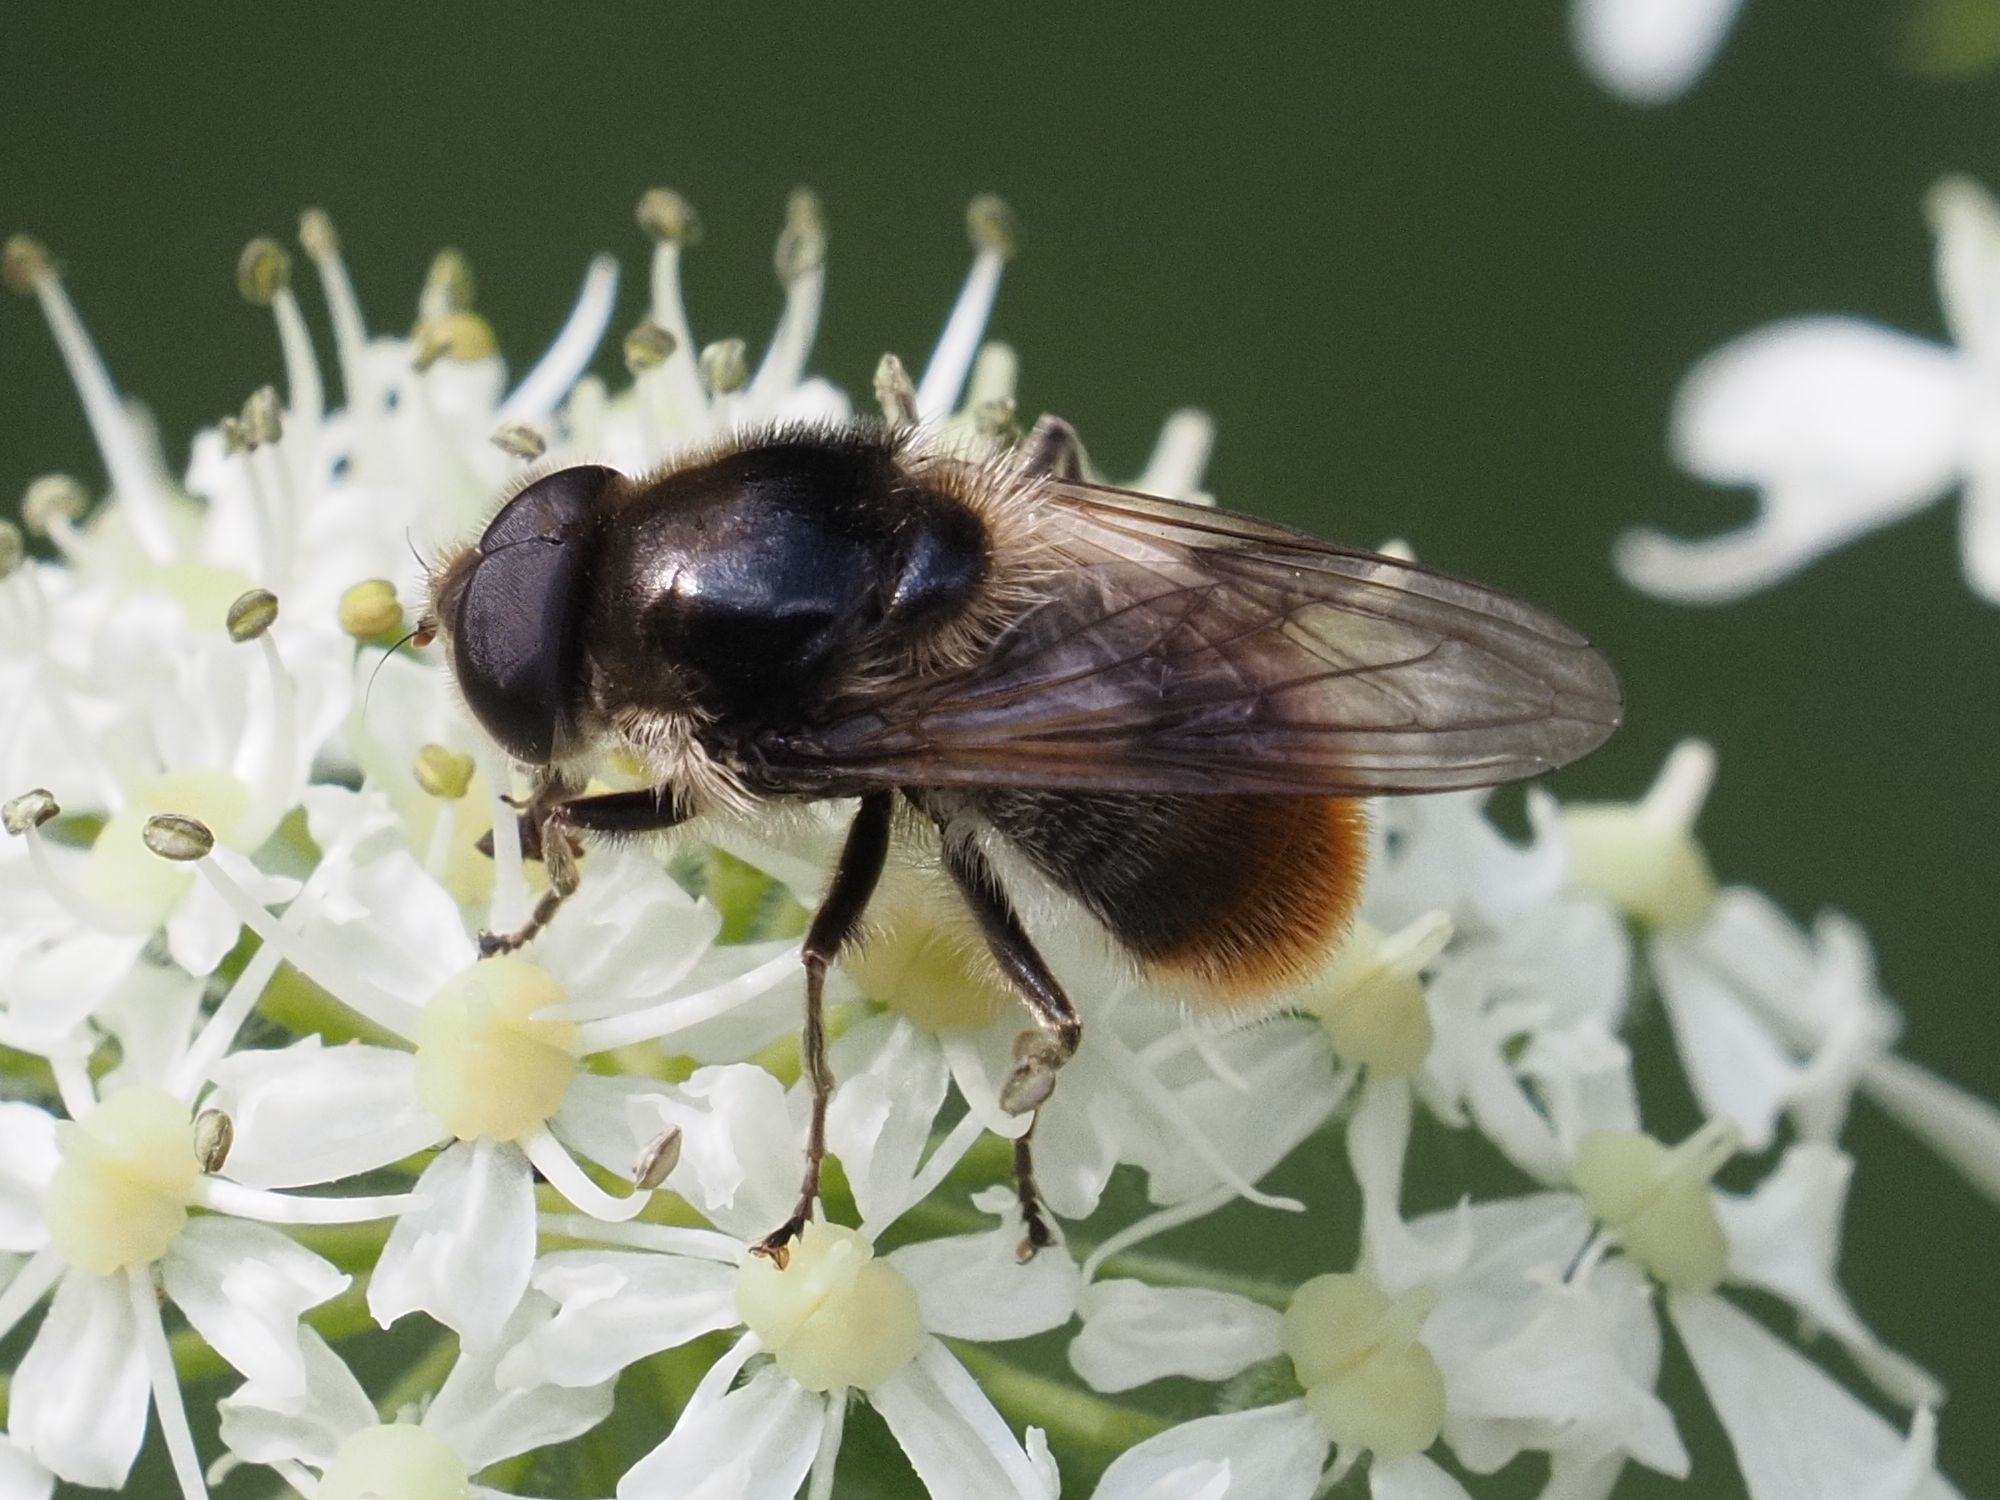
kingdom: Animalia
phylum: Arthropoda
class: Insecta
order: Diptera
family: Syrphidae
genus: Cheilosia
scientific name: Cheilosia illustrata
